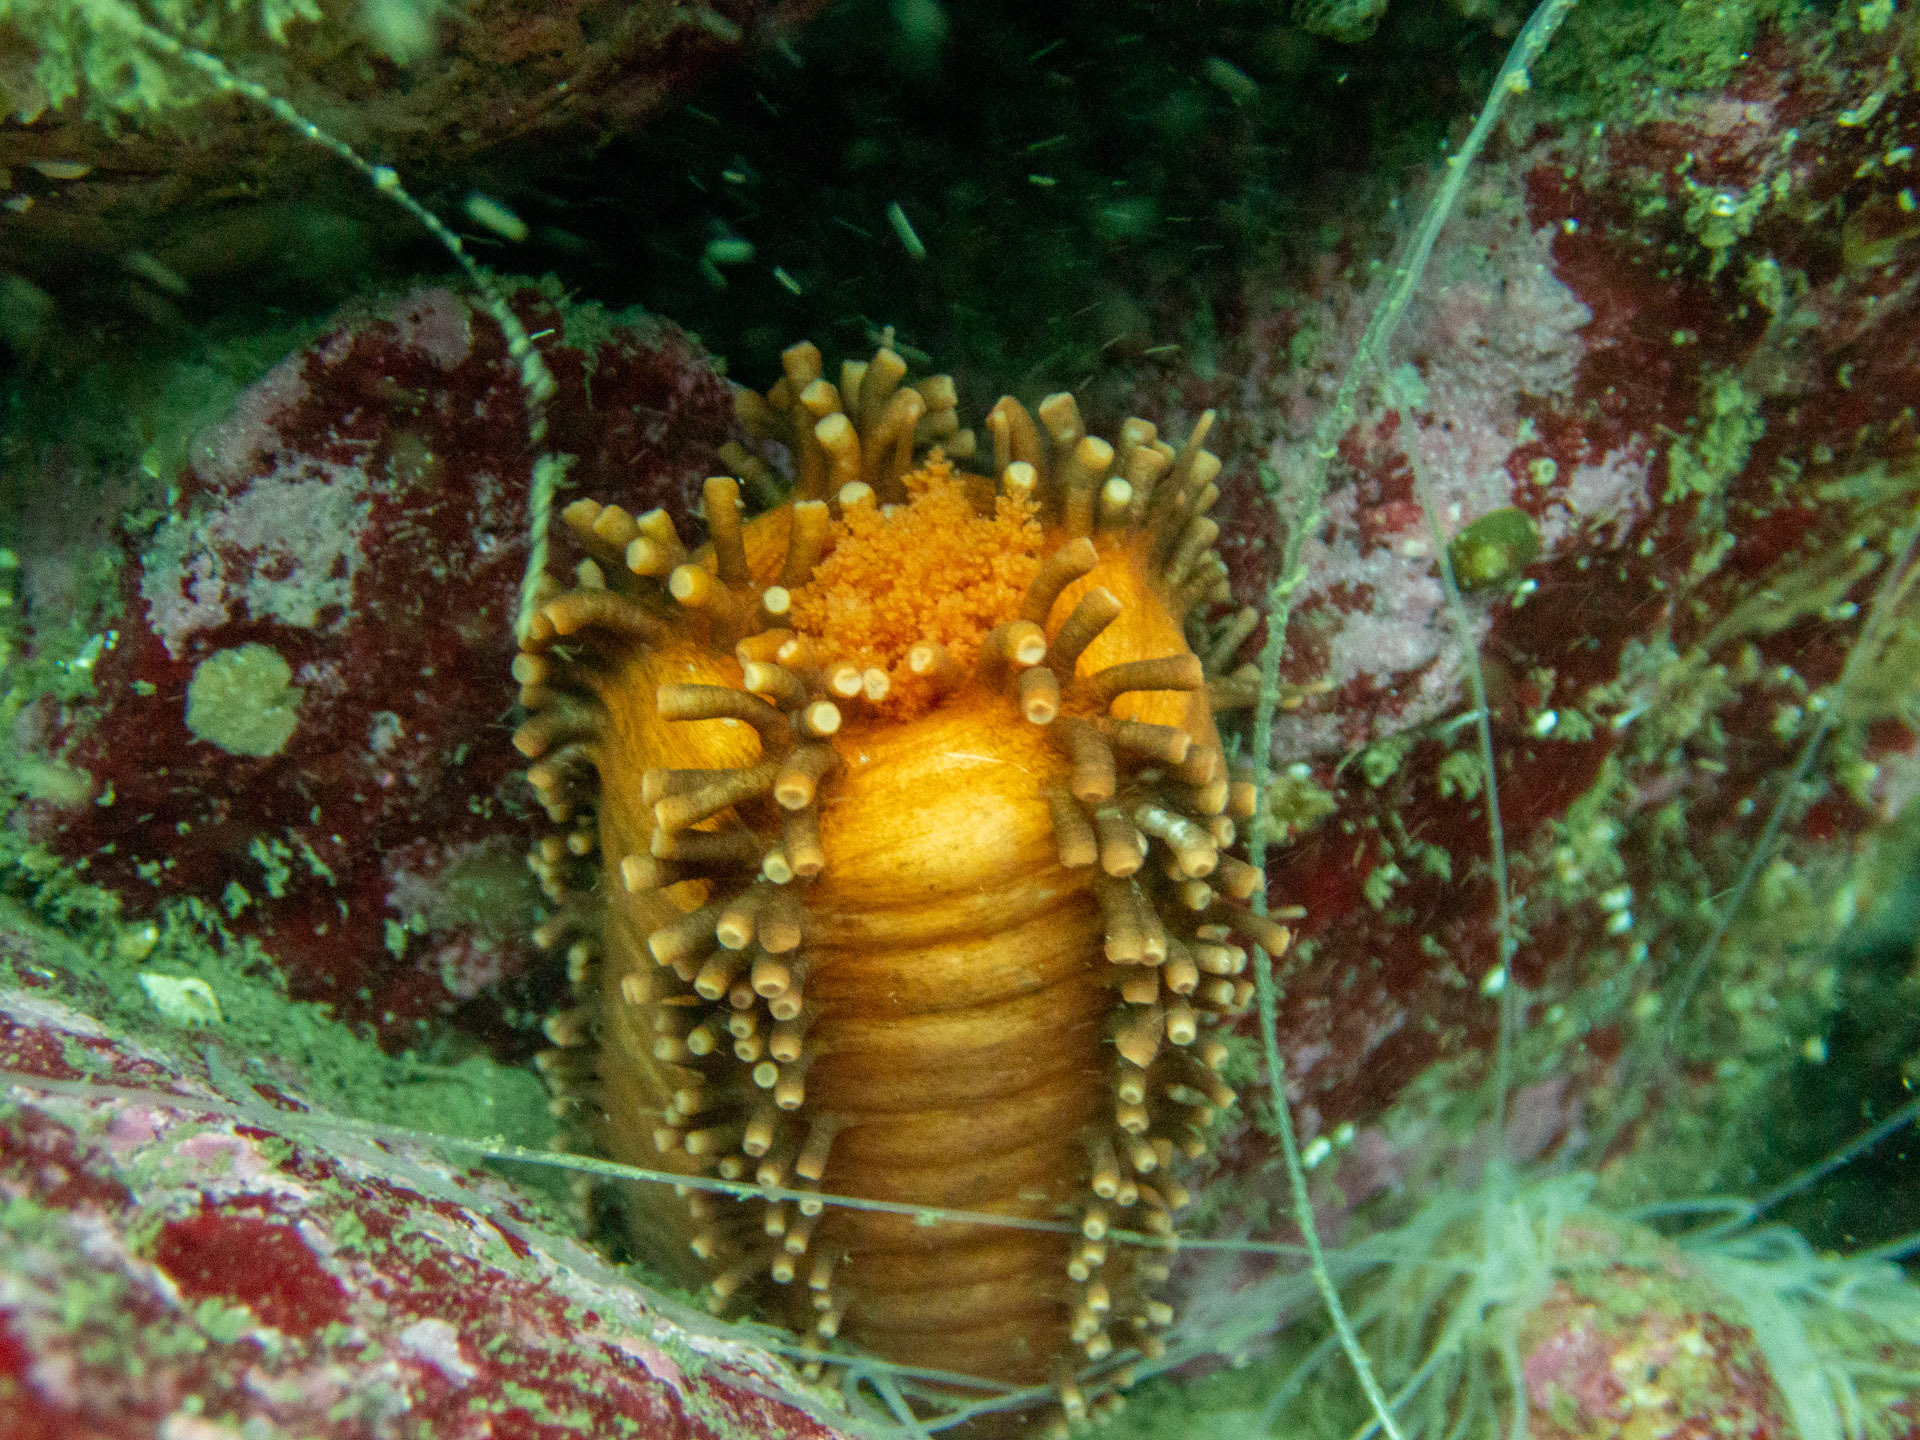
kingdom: Animalia
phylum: Echinodermata
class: Holothuroidea
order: Dendrochirotida
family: Cucumariidae
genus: Cucumaria
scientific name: Cucumaria miniata
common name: Orange sea cucumber
